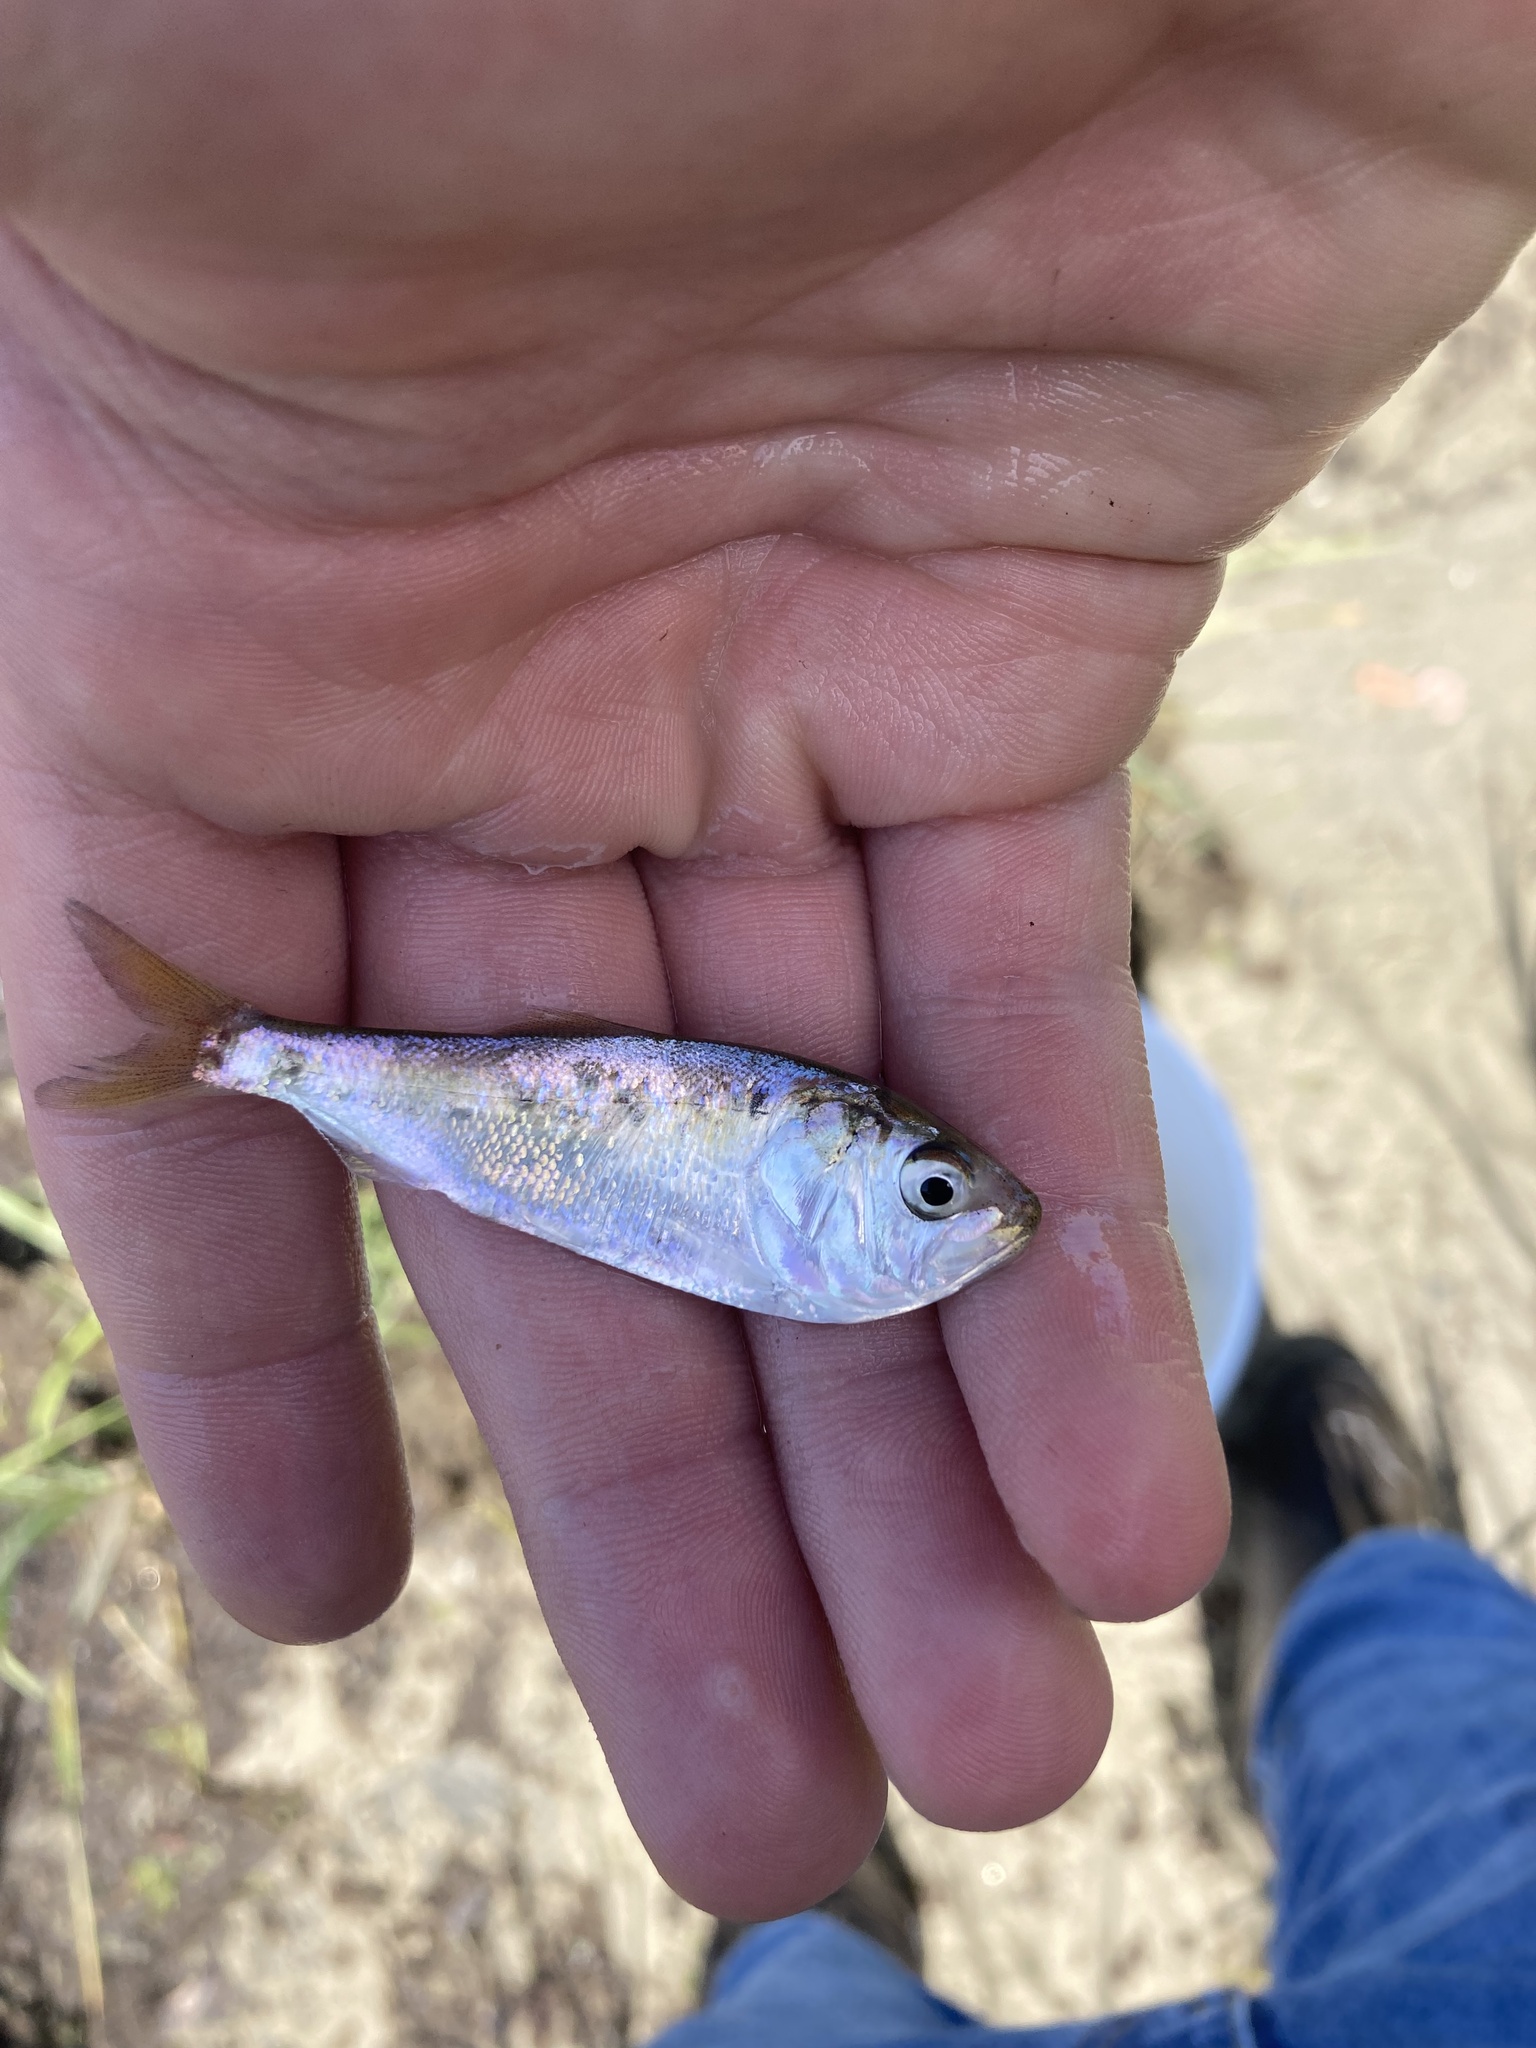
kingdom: Animalia
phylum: Chordata
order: Clupeiformes
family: Clupeidae
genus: Brevoortia
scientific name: Brevoortia tyrannus
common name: Atlantic menhaden
